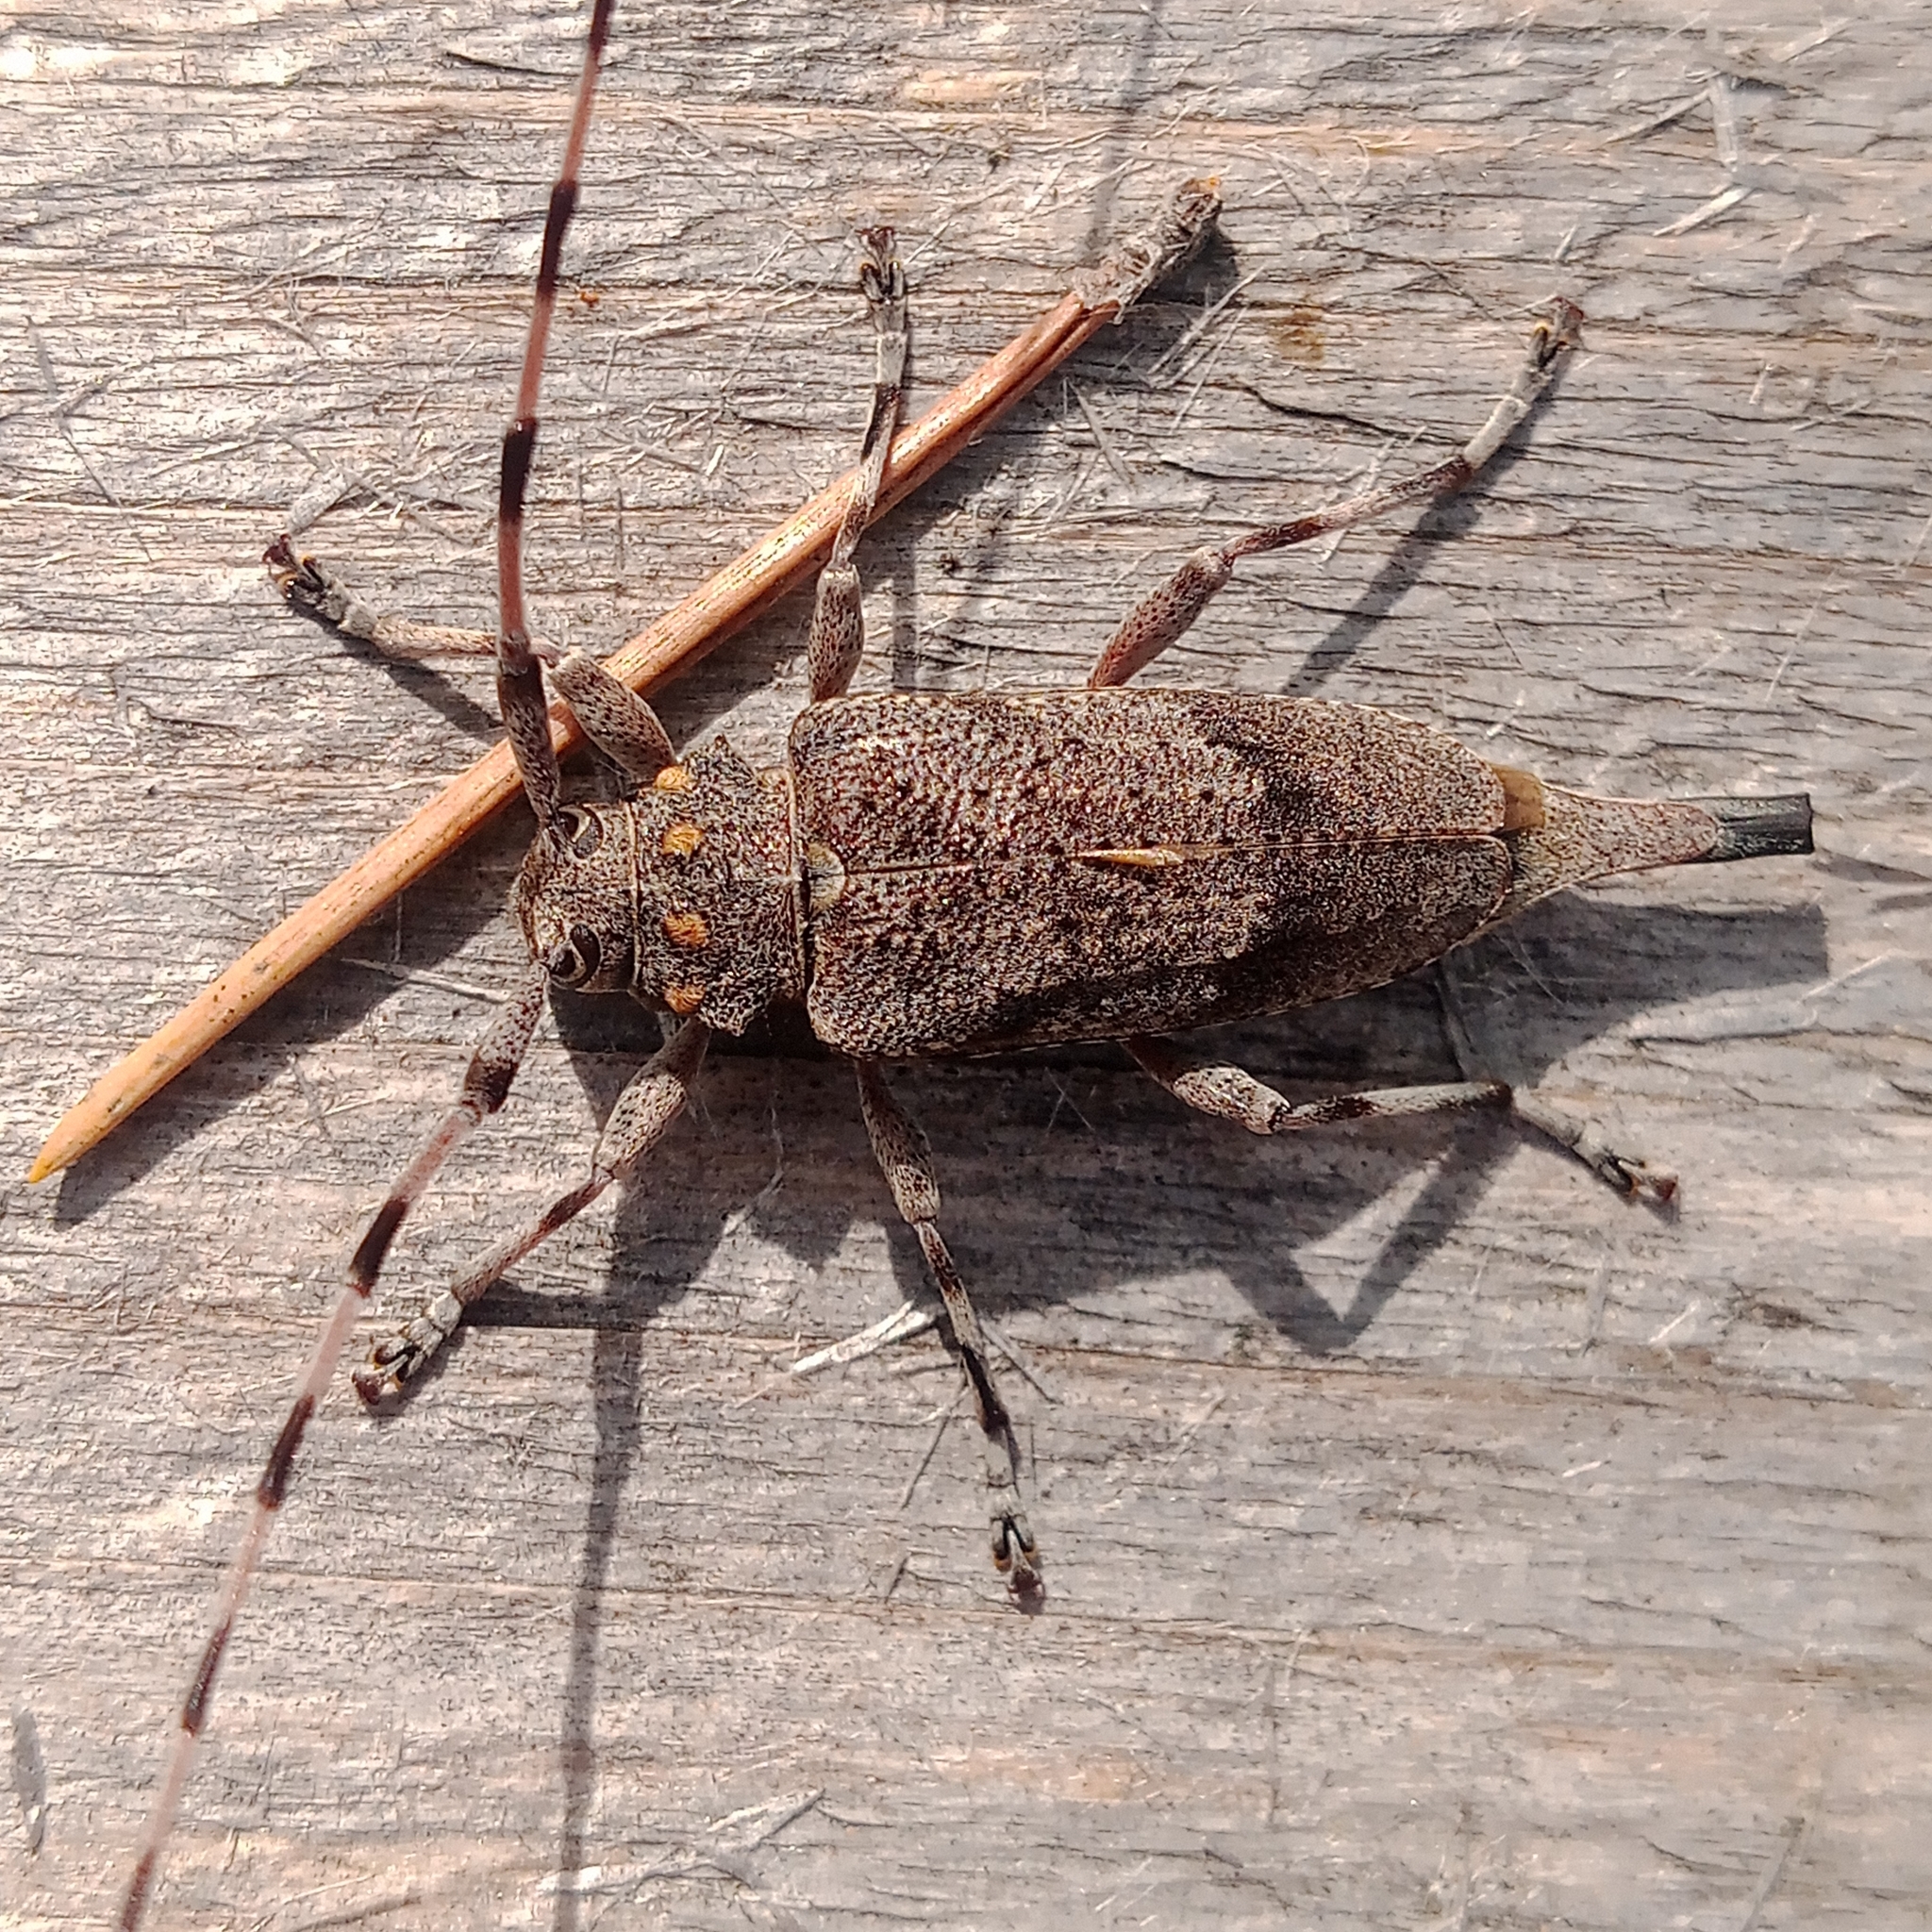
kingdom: Animalia
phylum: Arthropoda
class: Insecta
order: Coleoptera
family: Cerambycidae
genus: Acanthocinus
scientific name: Acanthocinus aedilis
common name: Timberman beetle
